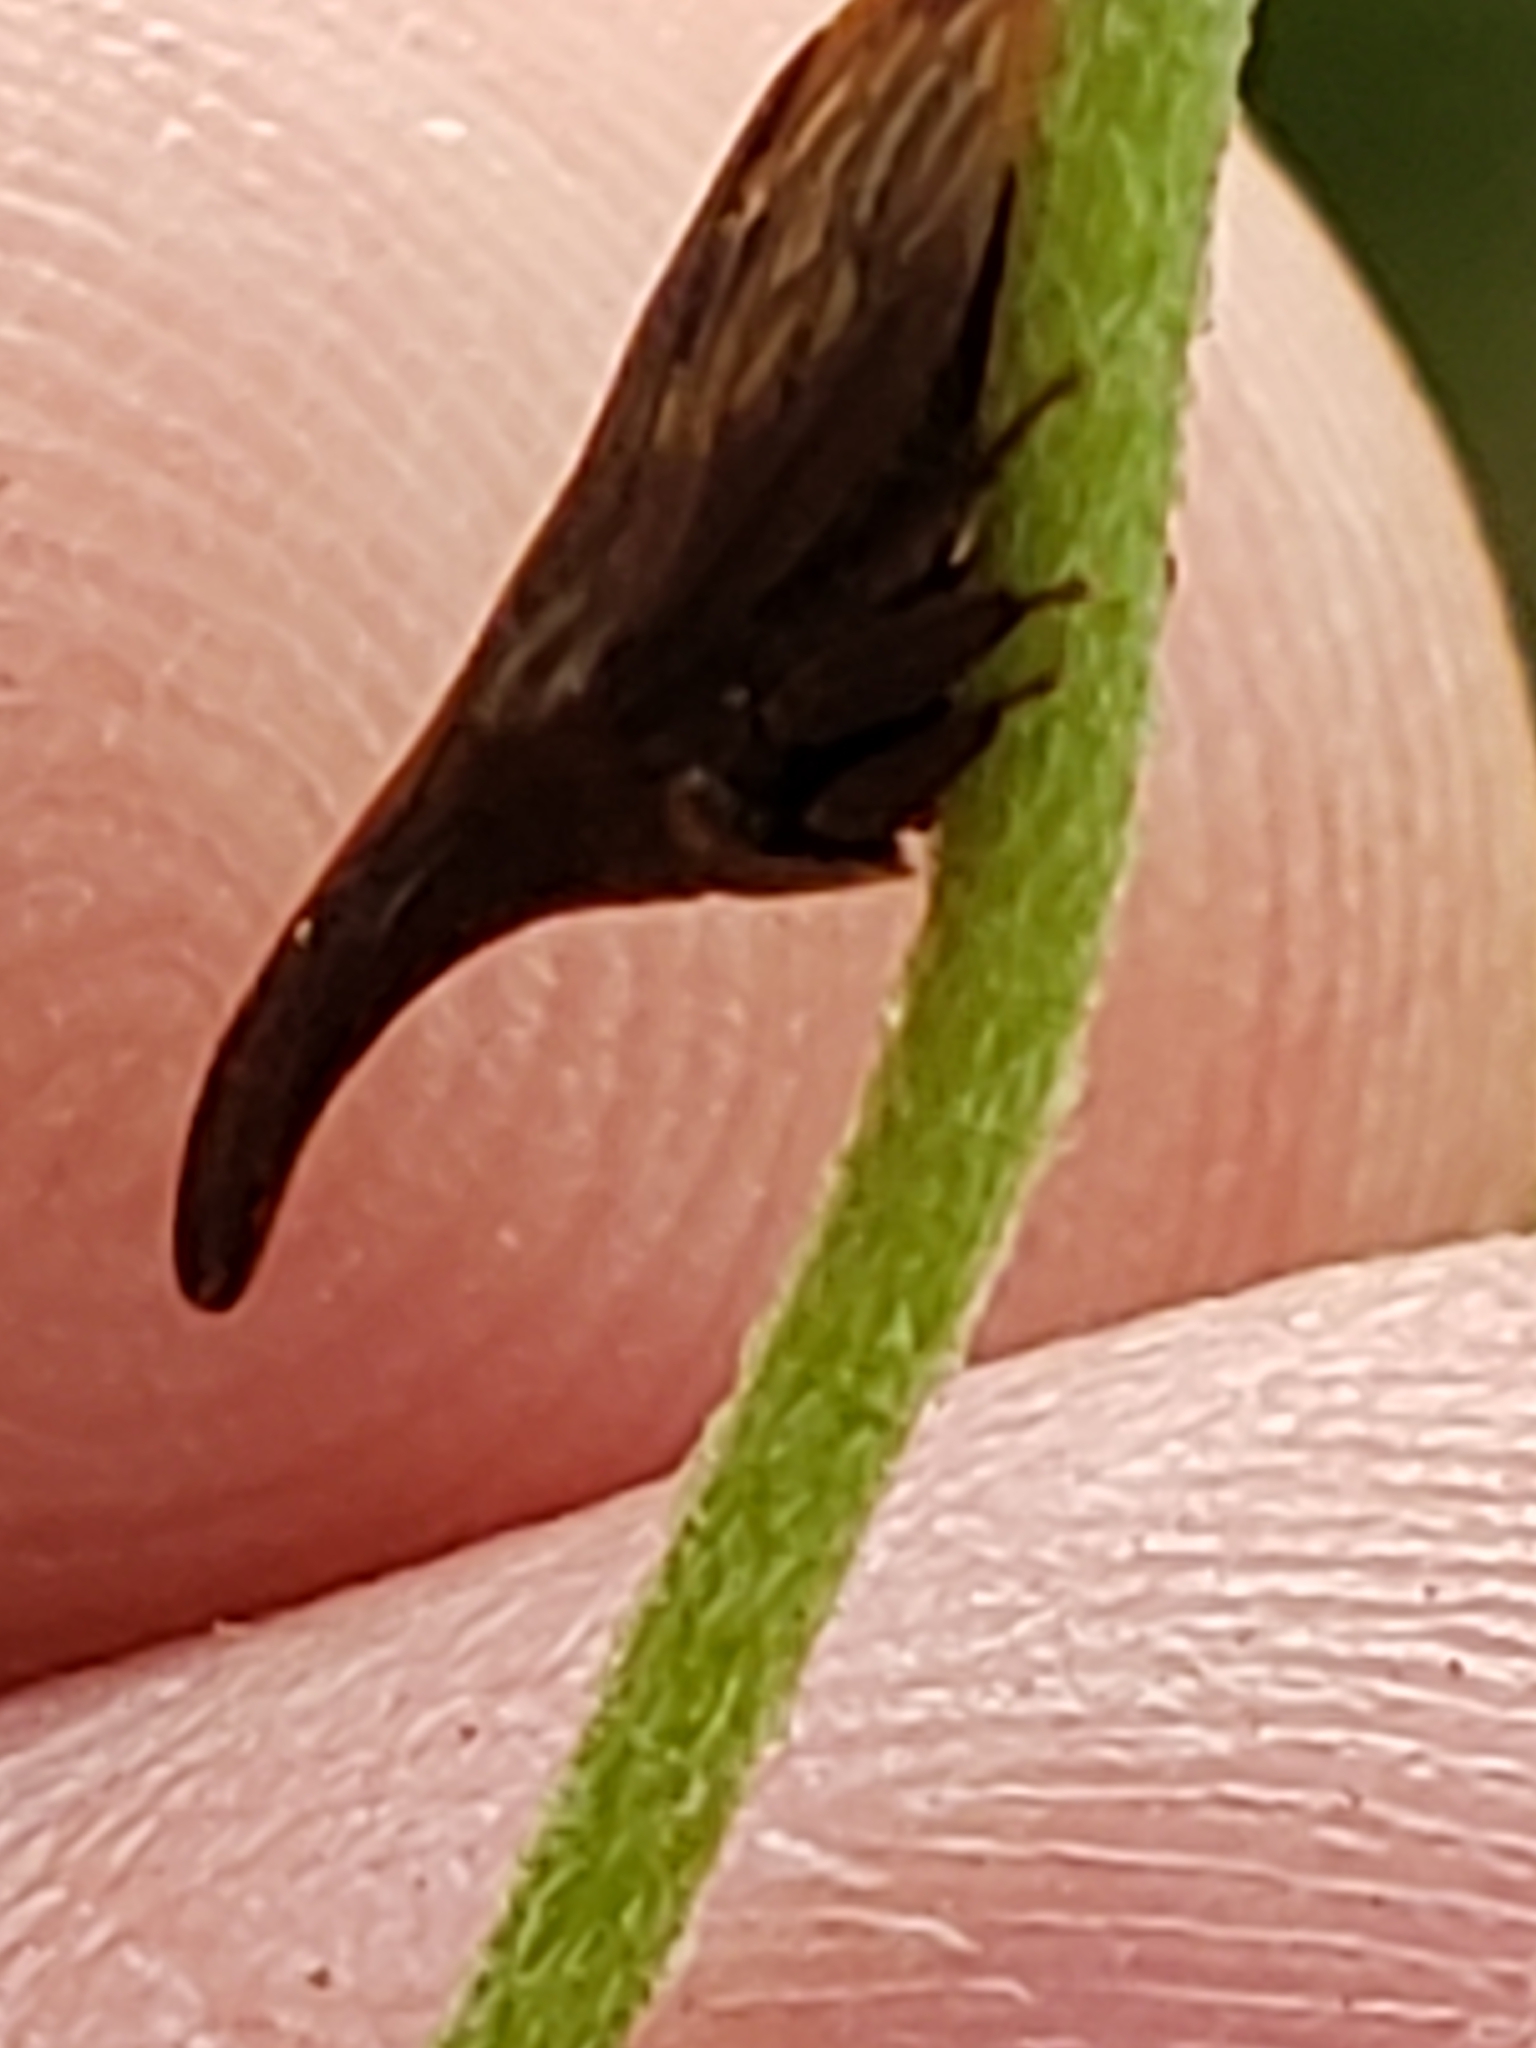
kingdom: Animalia
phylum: Arthropoda
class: Insecta
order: Hemiptera
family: Membracidae
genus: Enchenopa
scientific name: Enchenopa latipes
